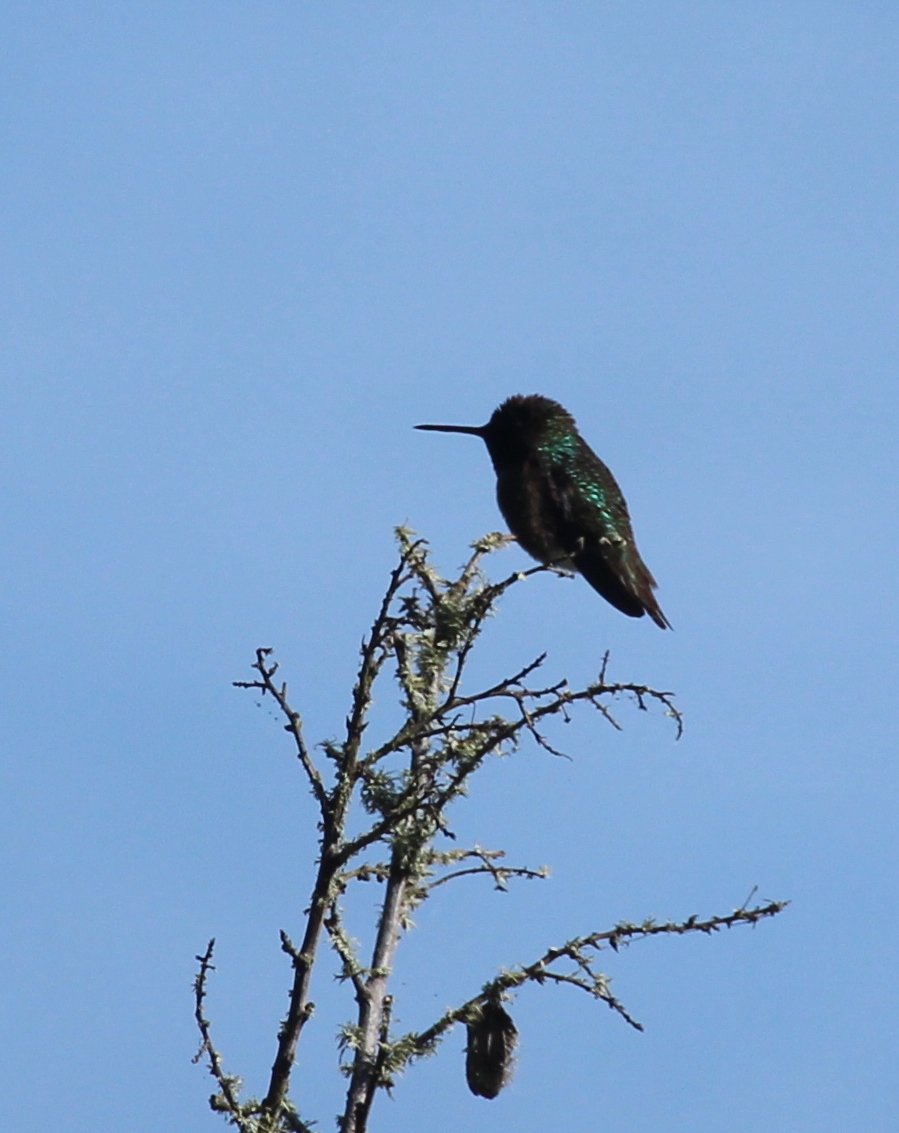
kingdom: Animalia
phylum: Chordata
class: Aves
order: Apodiformes
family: Trochilidae
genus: Calypte
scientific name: Calypte anna
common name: Anna's hummingbird
